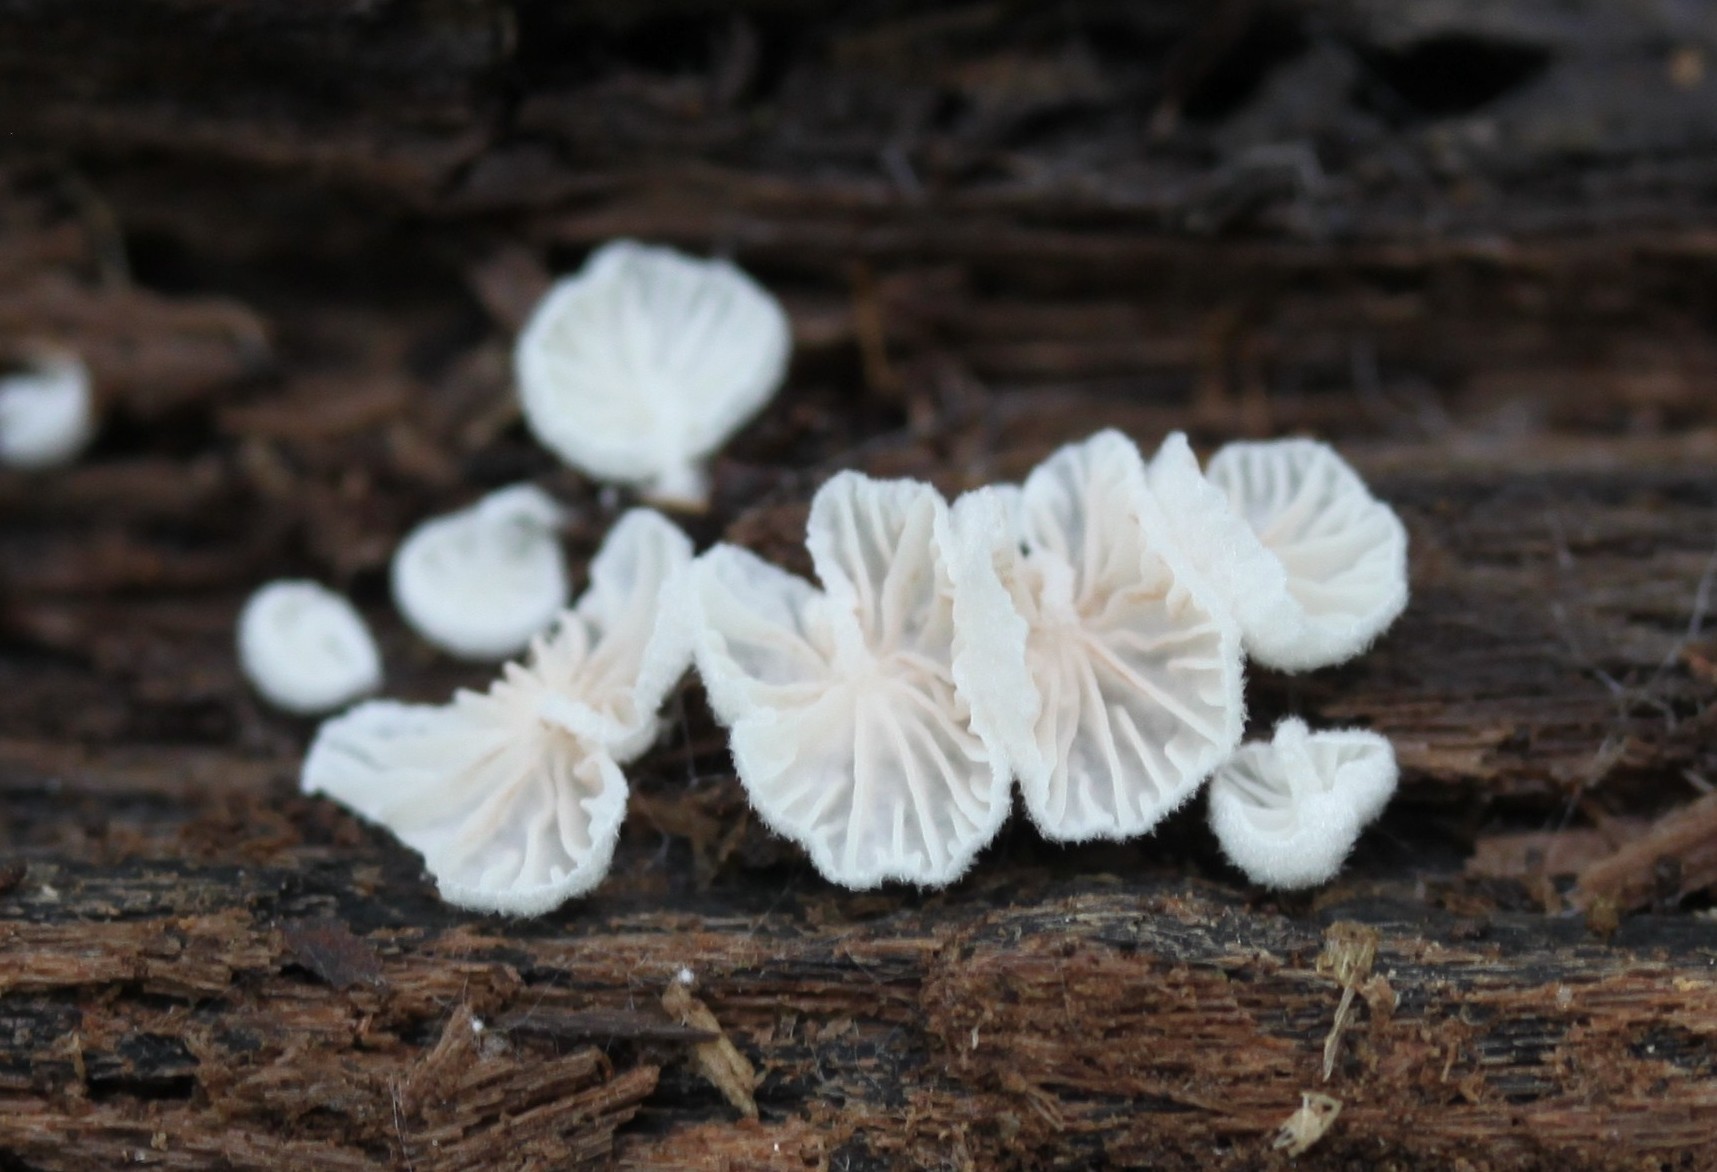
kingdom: Fungi
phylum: Basidiomycota
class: Agaricomycetes
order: Agaricales
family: Omphalotaceae
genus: Marasmiellus
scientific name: Marasmiellus candidus
